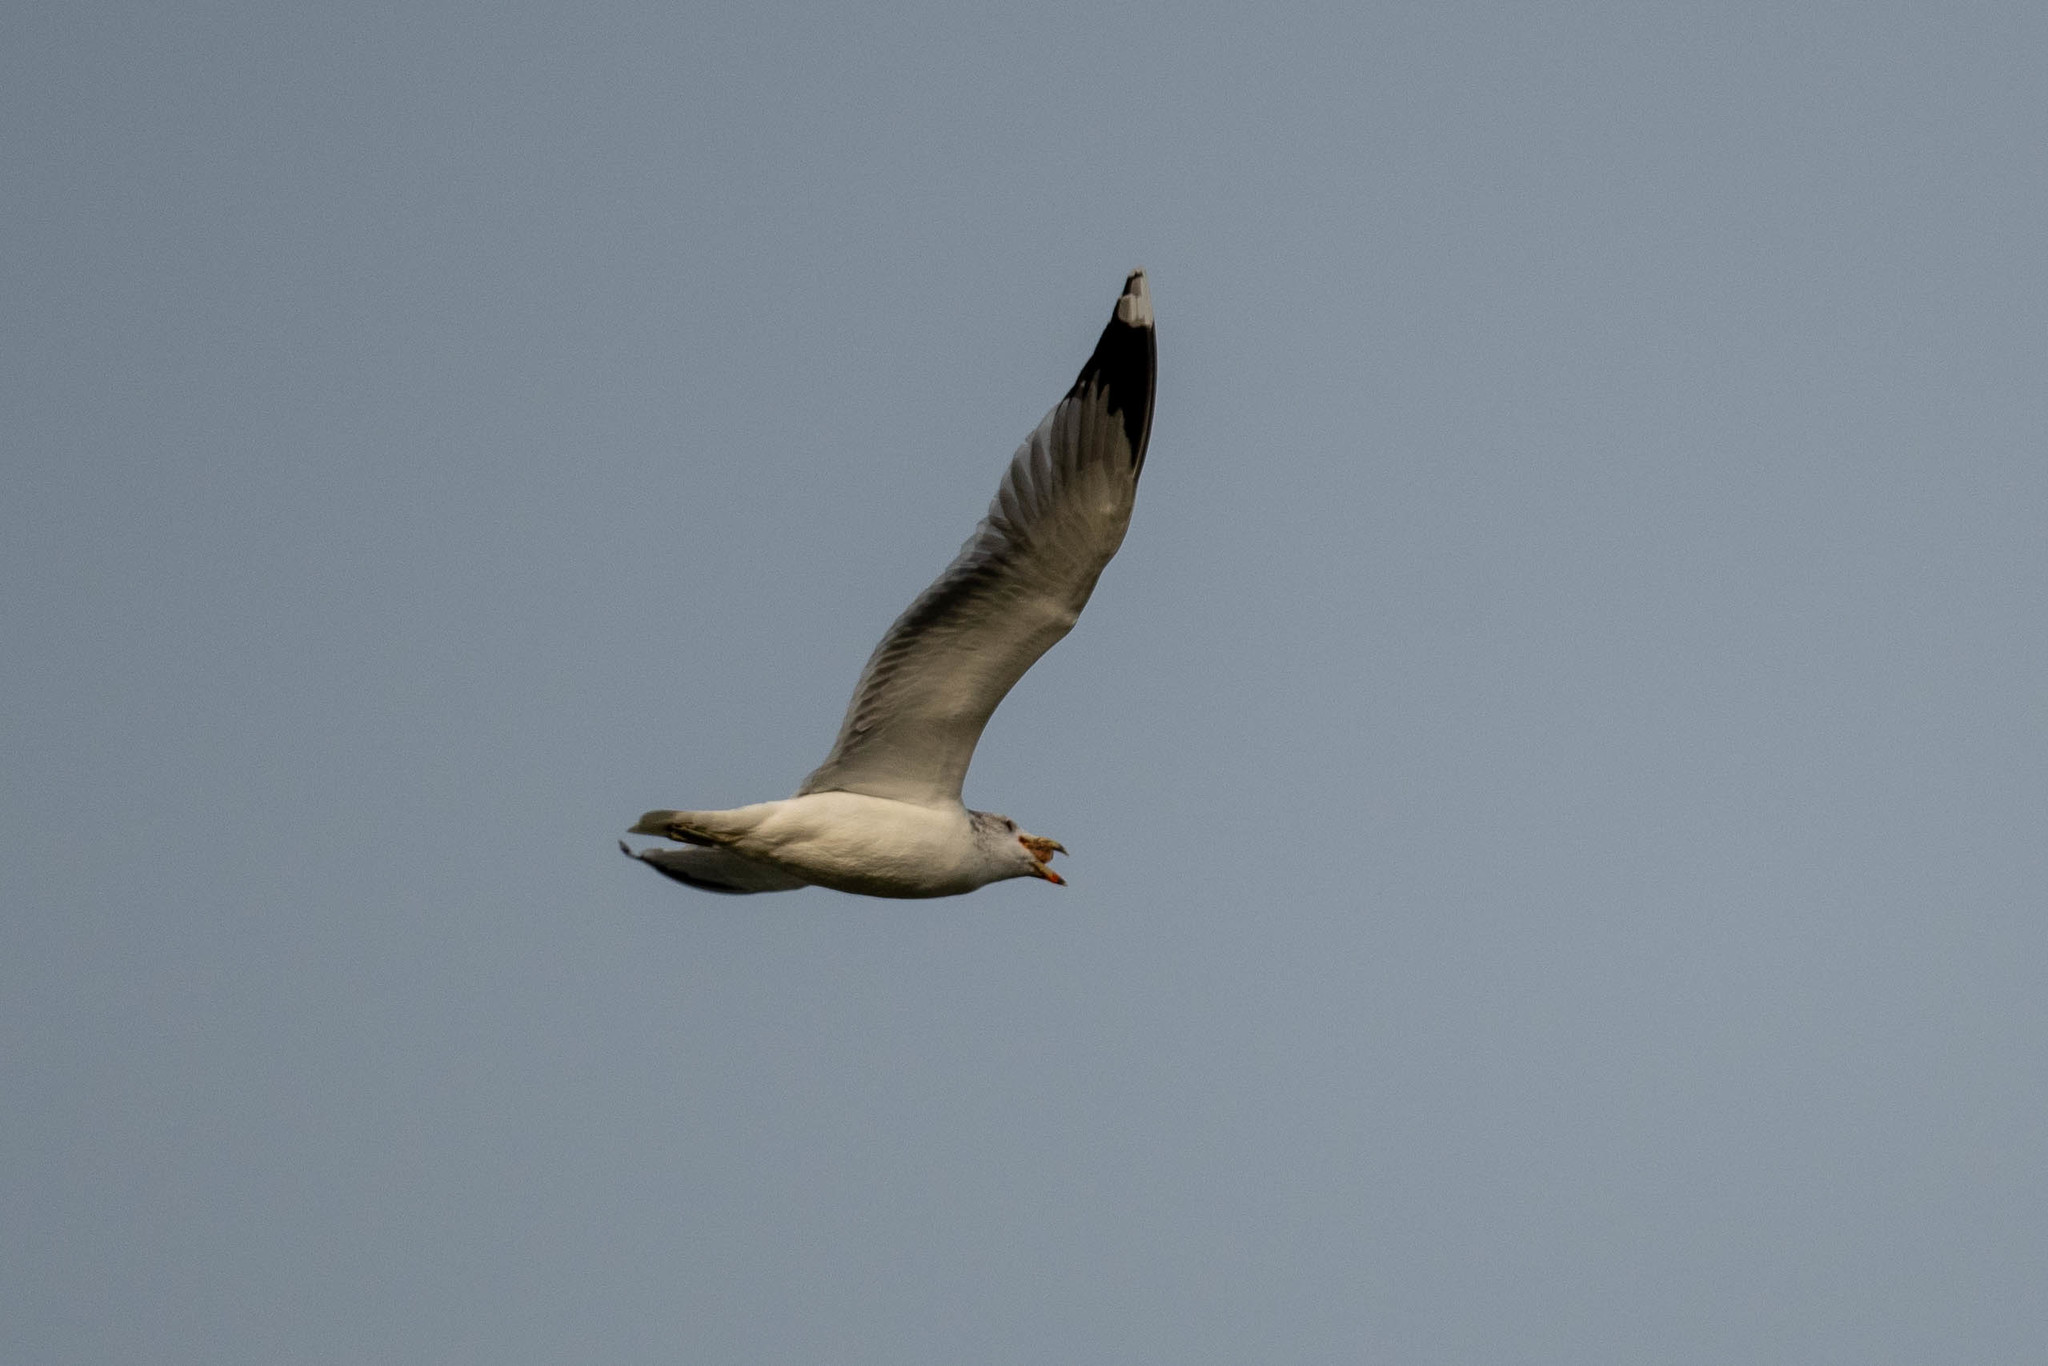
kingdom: Animalia
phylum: Chordata
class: Aves
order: Charadriiformes
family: Laridae
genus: Larus
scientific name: Larus californicus
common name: California gull
